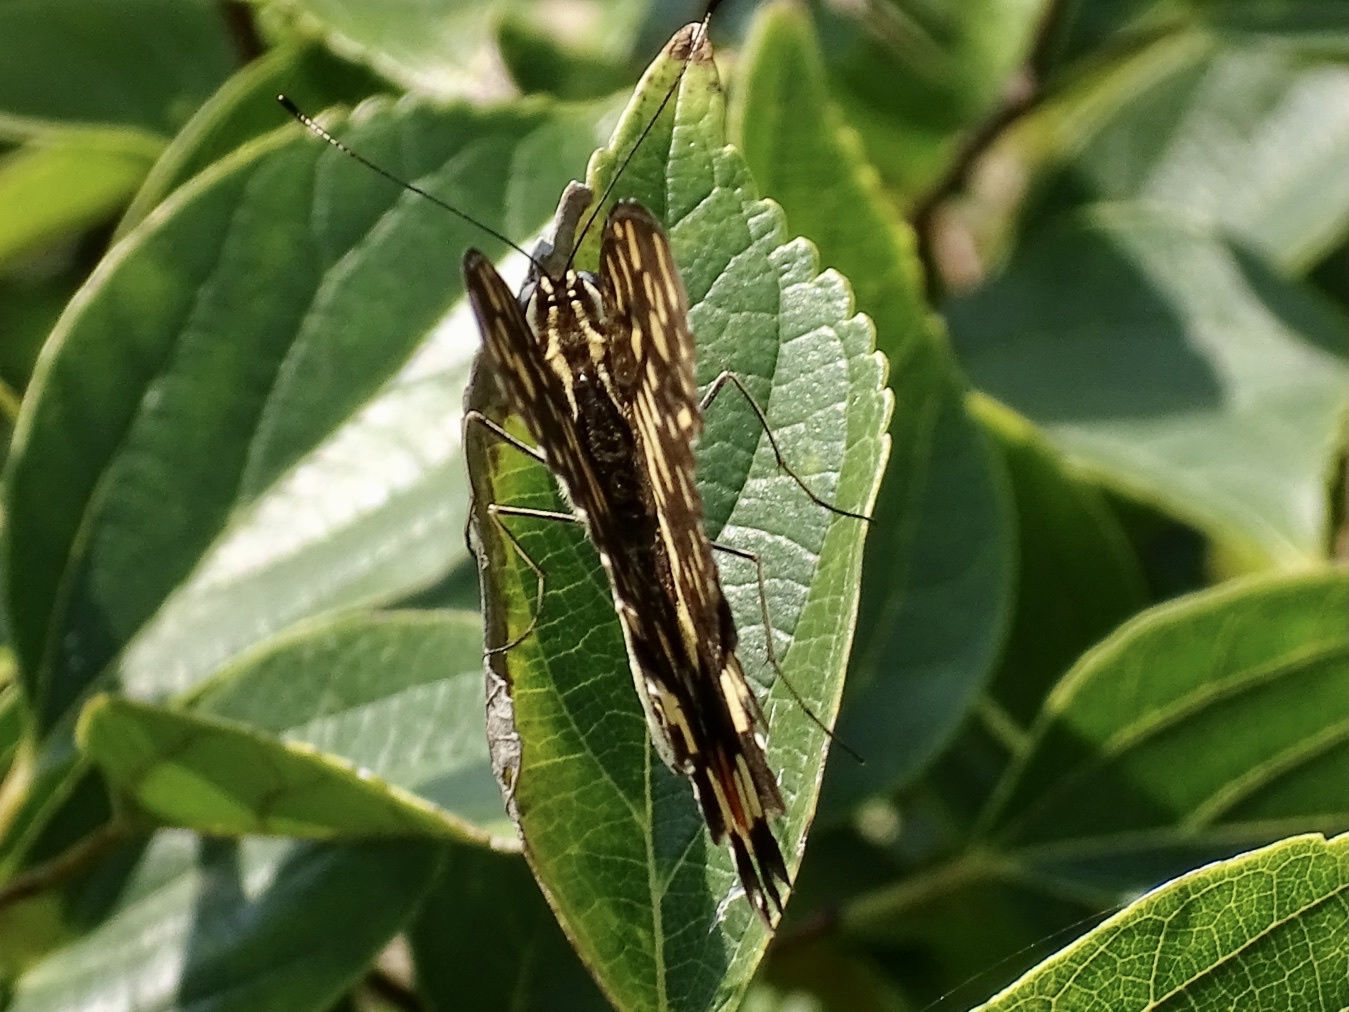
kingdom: Animalia
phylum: Arthropoda
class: Insecta
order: Lepidoptera
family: Papilionidae
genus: Papilio
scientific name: Papilio demoleus
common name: Lime butterfly
